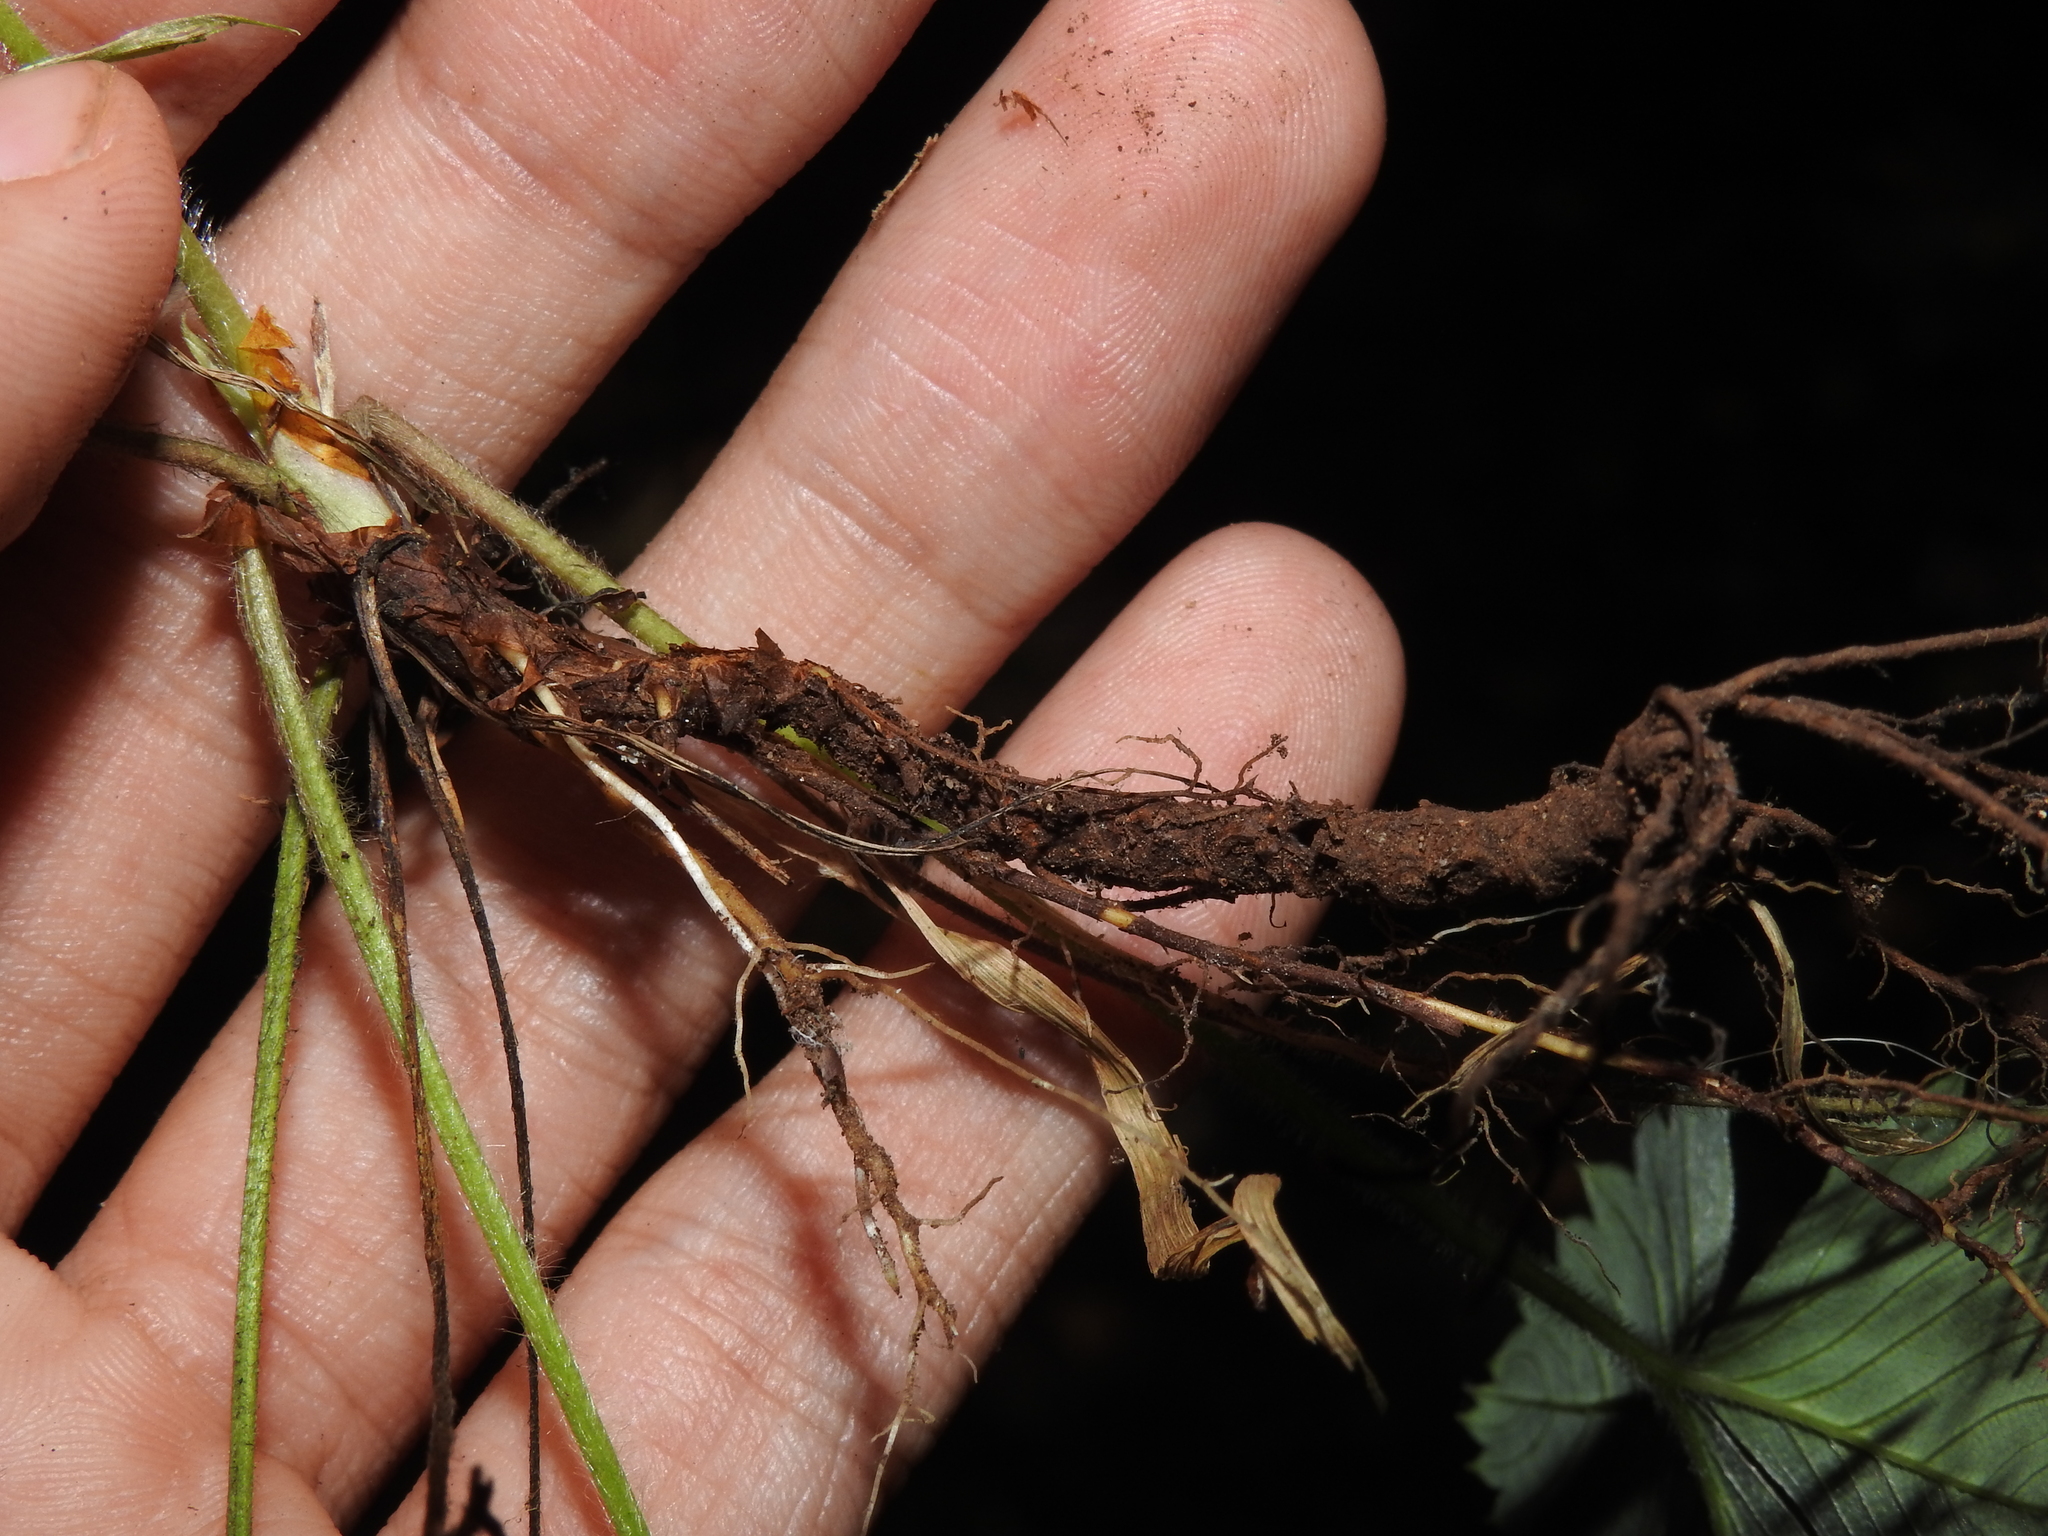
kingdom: Plantae
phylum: Tracheophyta
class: Magnoliopsida
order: Rosales
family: Rosaceae
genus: Fragaria
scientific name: Fragaria vesca
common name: Wild strawberry
